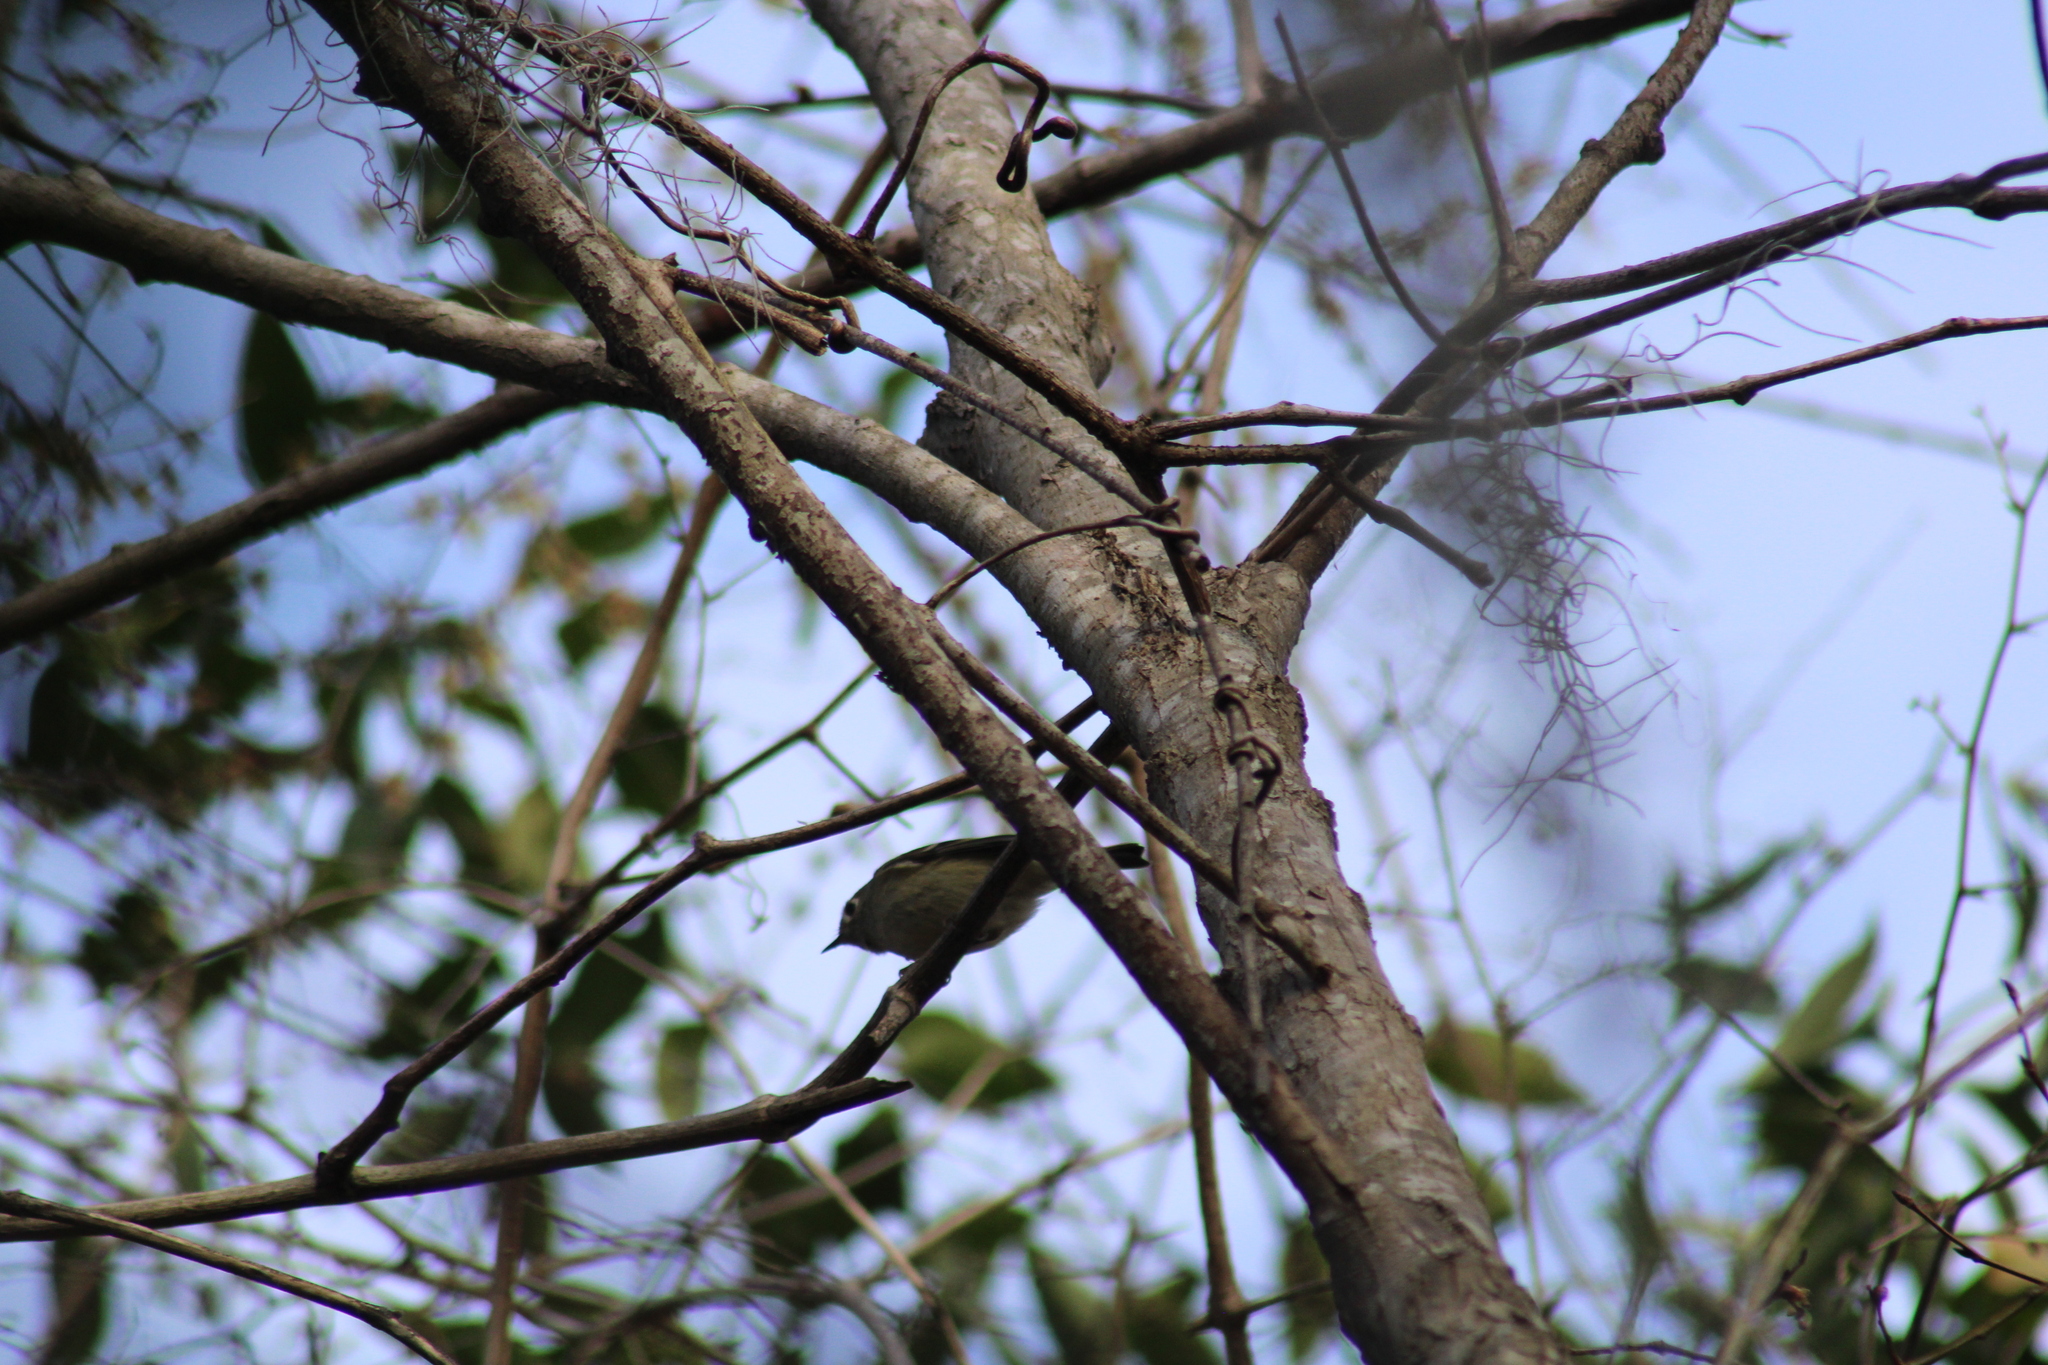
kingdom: Animalia
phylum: Chordata
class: Aves
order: Passeriformes
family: Regulidae
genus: Regulus
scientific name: Regulus calendula
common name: Ruby-crowned kinglet
